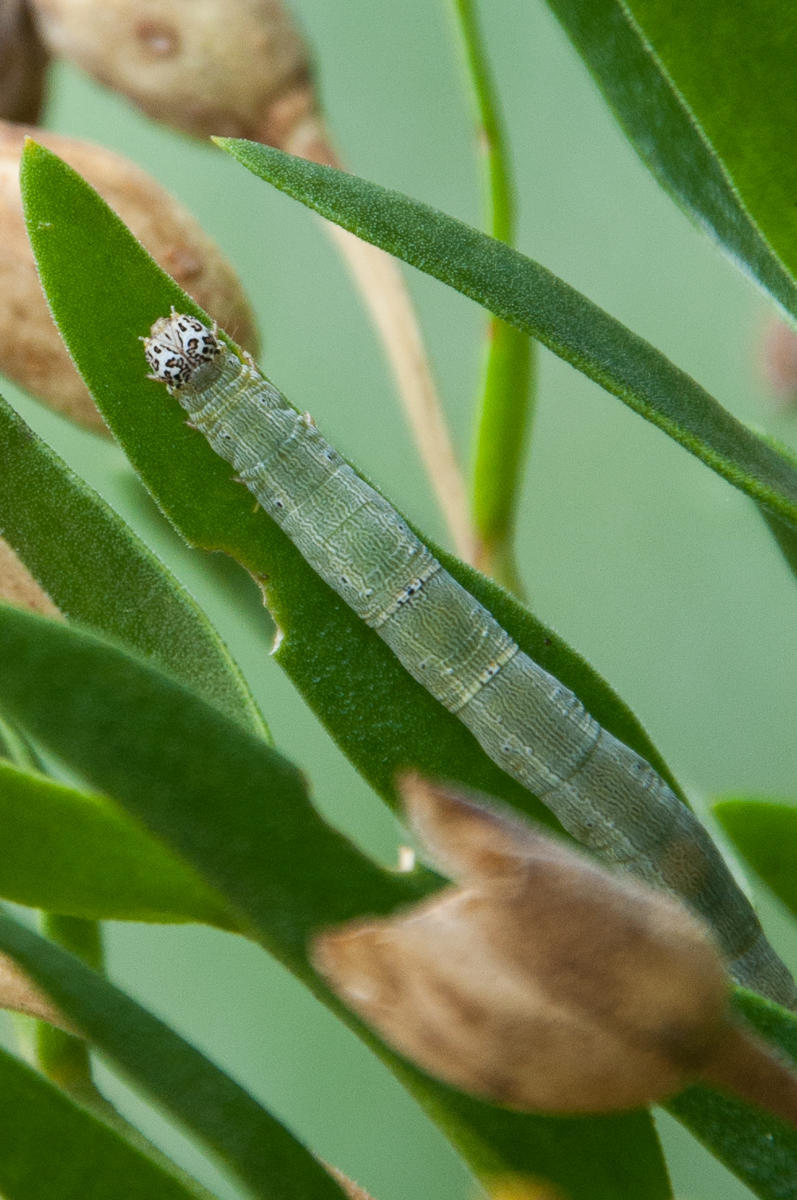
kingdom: Animalia
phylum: Arthropoda
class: Insecta
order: Lepidoptera
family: Erebidae
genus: Achaea
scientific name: Achaea indeterminata
